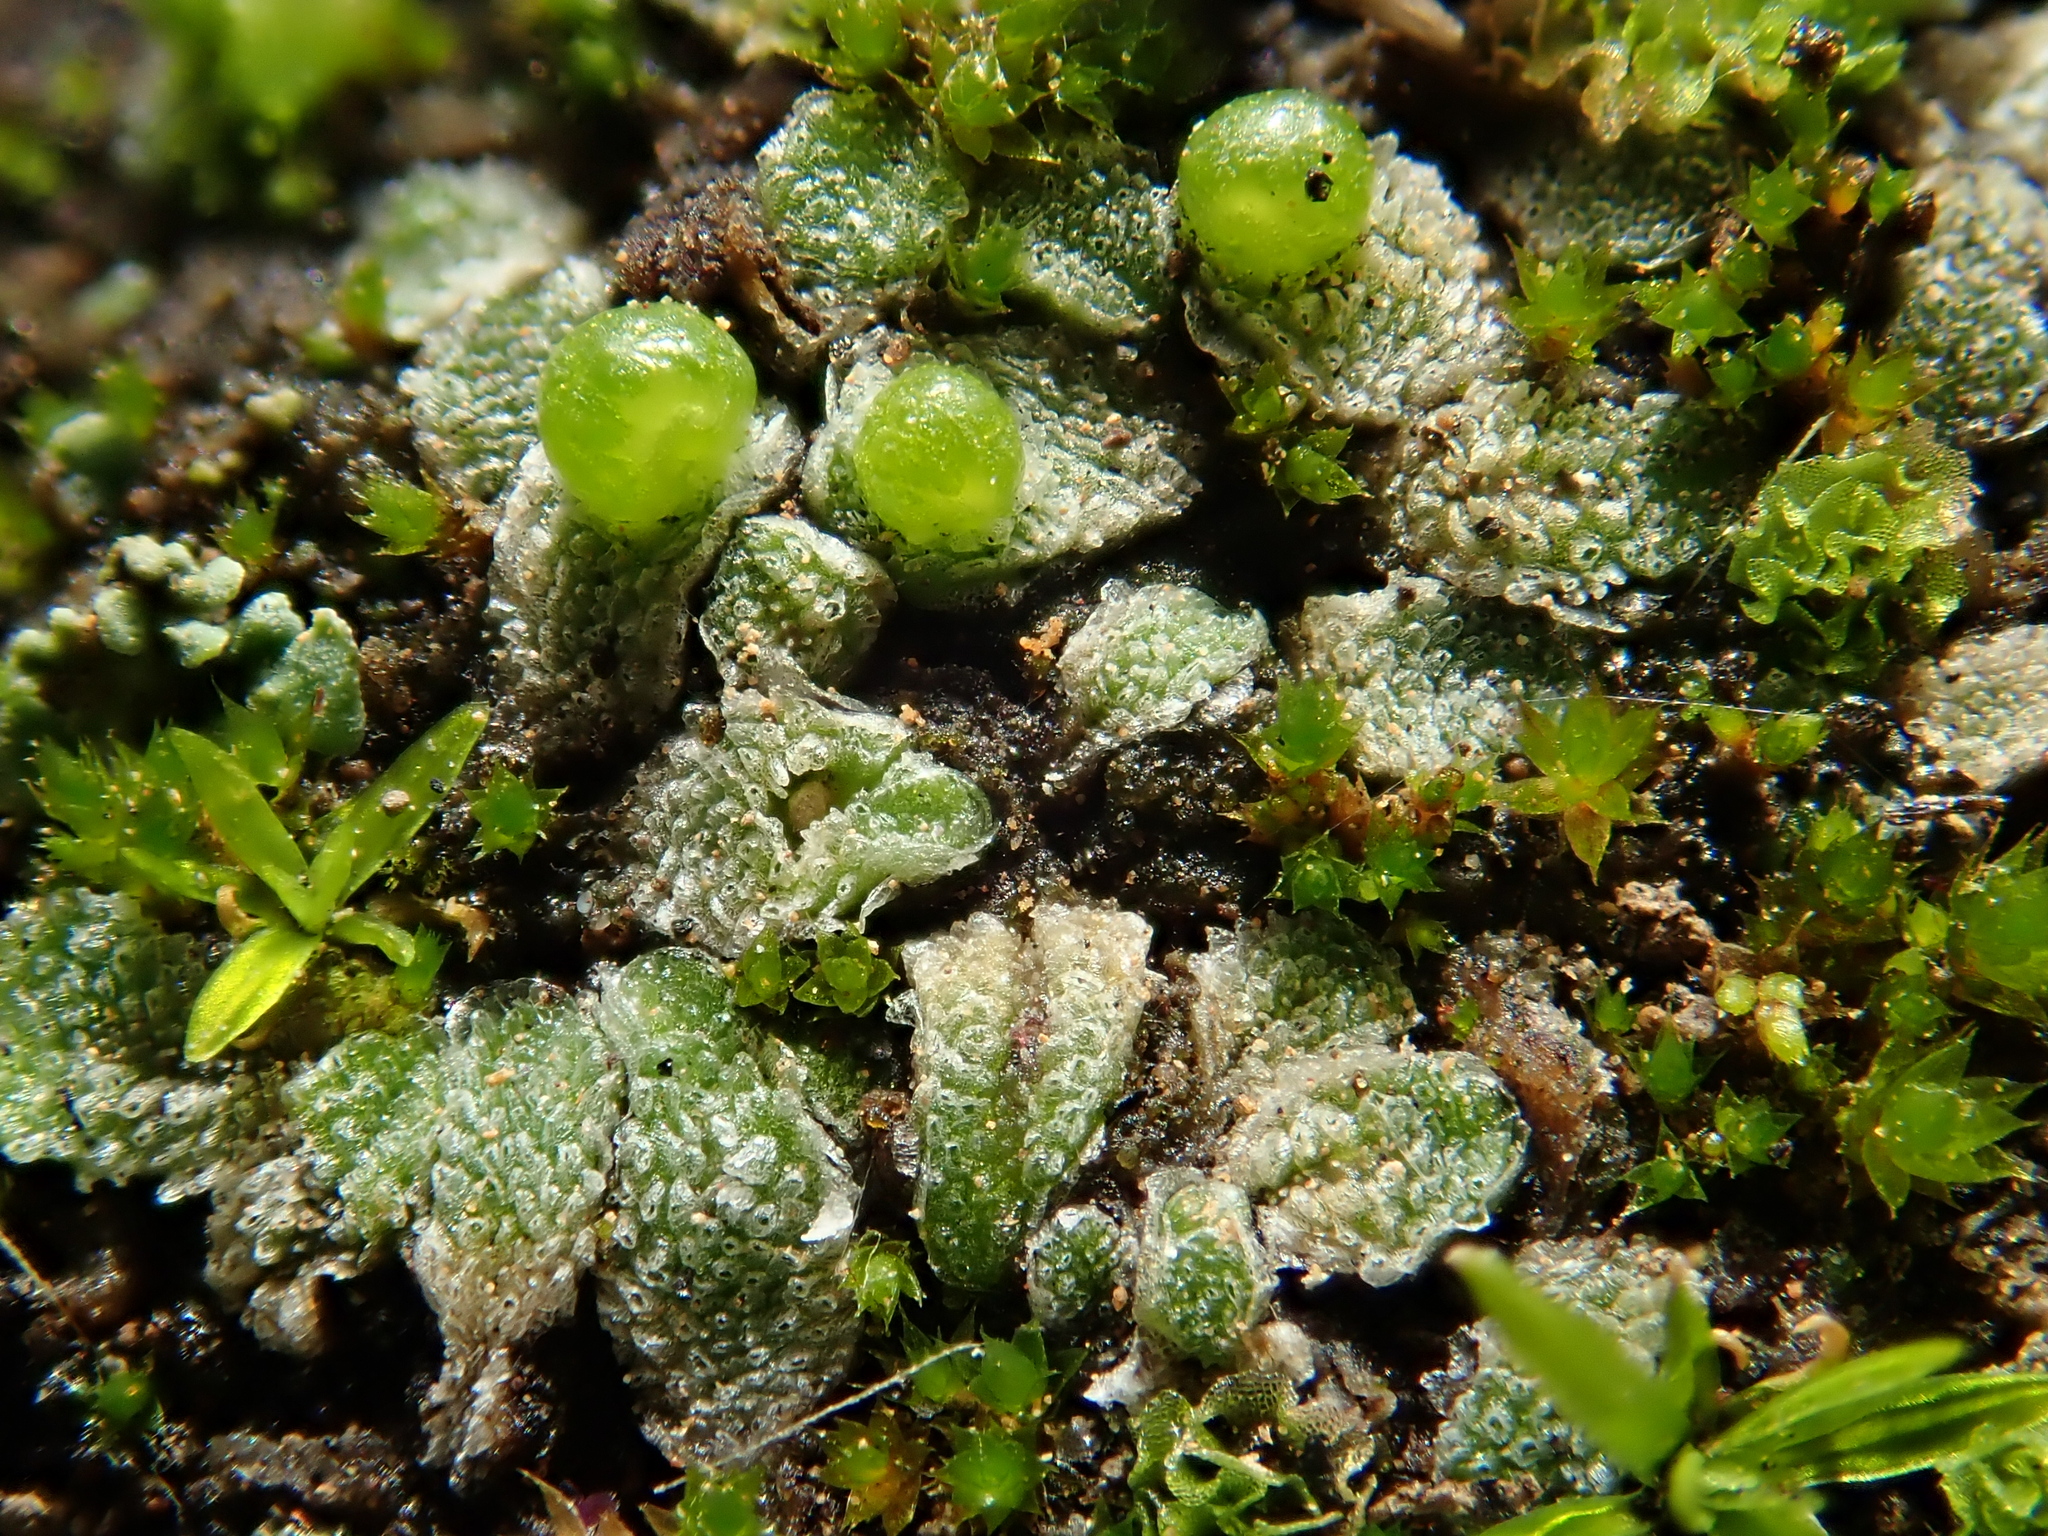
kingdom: Plantae
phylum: Marchantiophyta
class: Marchantiopsida
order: Marchantiales
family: Corsiniaceae
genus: Exormotheca
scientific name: Exormotheca pustulosa
